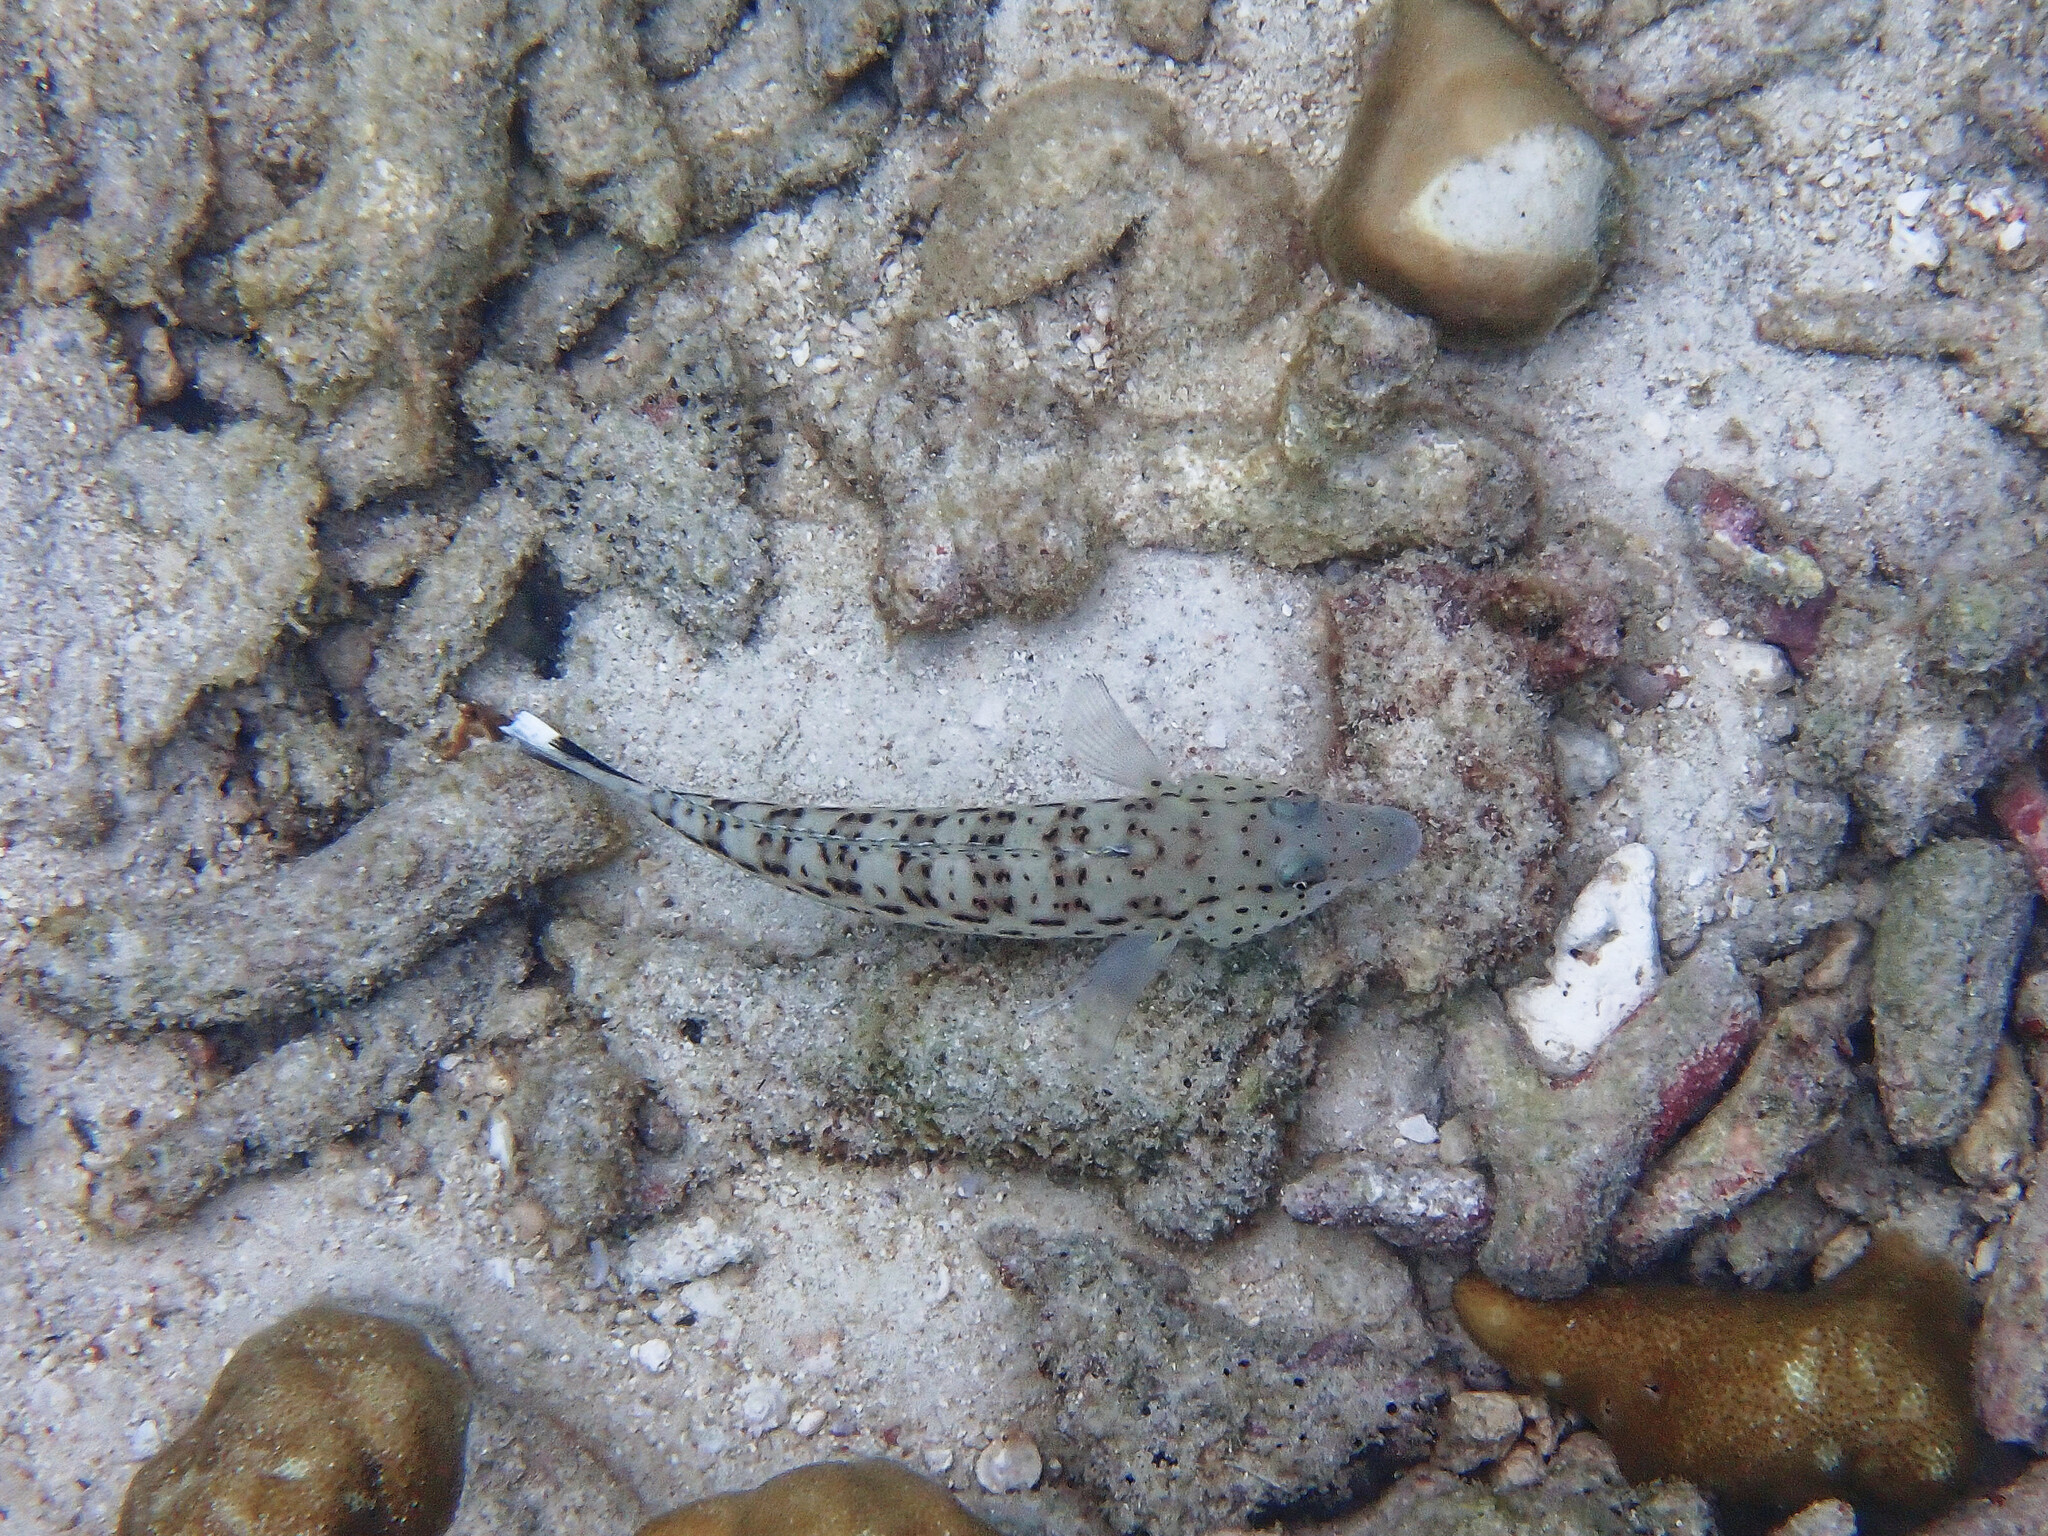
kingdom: Animalia
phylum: Chordata
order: Perciformes
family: Pinguipedidae
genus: Parapercis
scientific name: Parapercis hexophtalma
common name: Speckled sandperch
